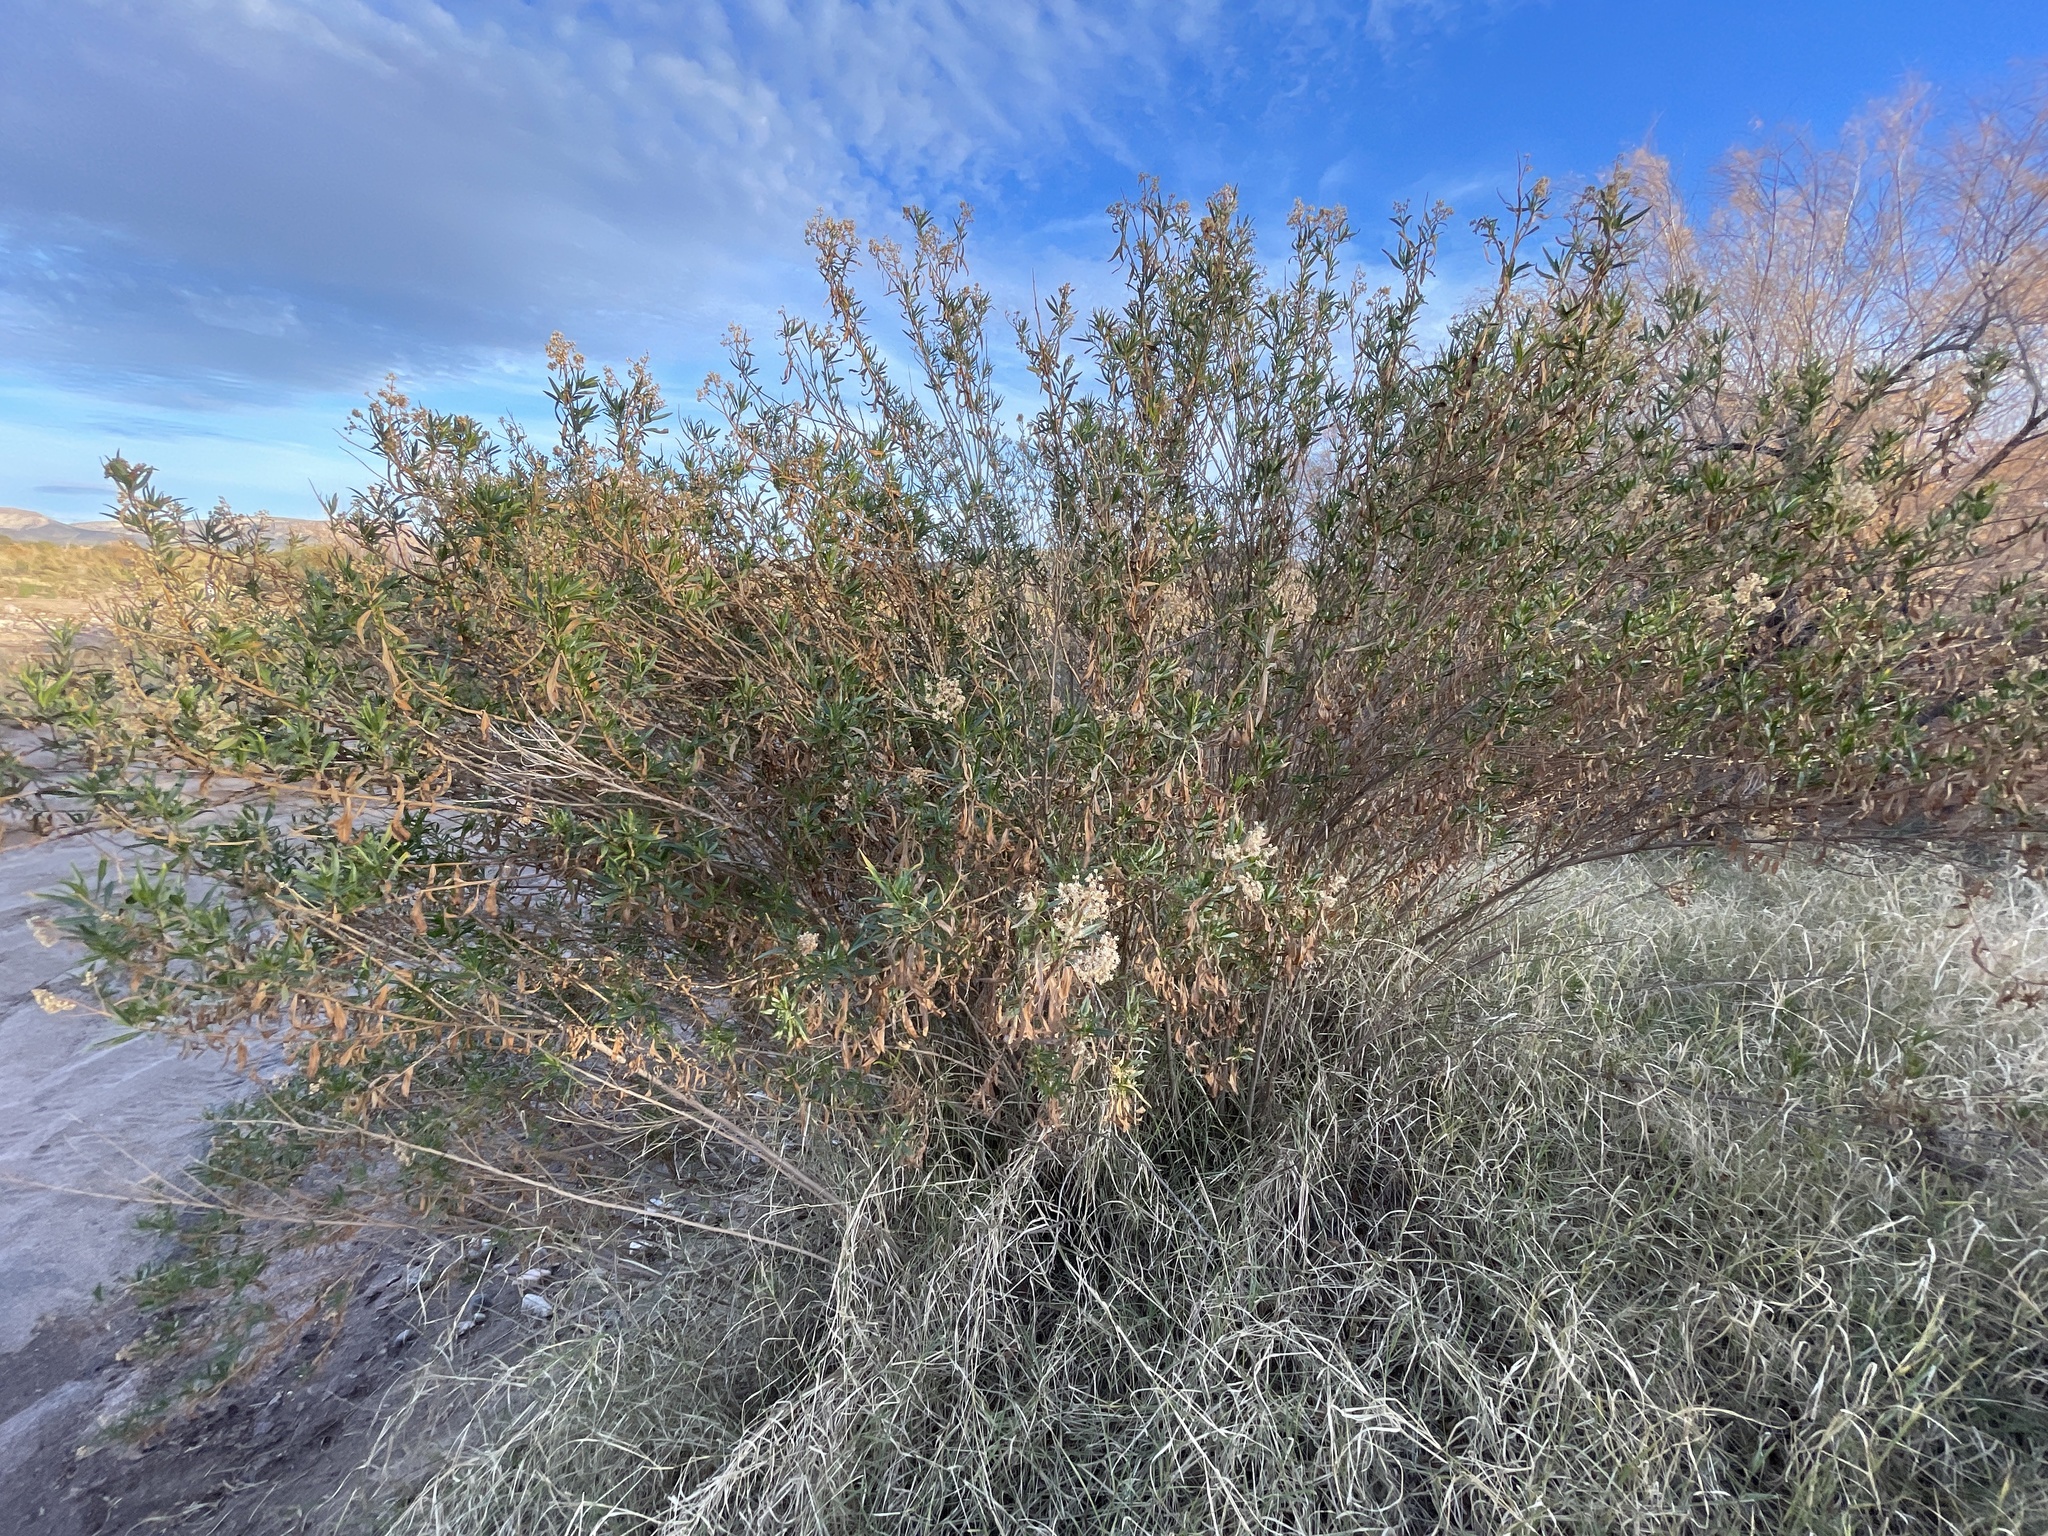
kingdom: Plantae
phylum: Tracheophyta
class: Magnoliopsida
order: Asterales
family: Asteraceae
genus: Baccharis
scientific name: Baccharis salicifolia
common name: Sticky baccharis
